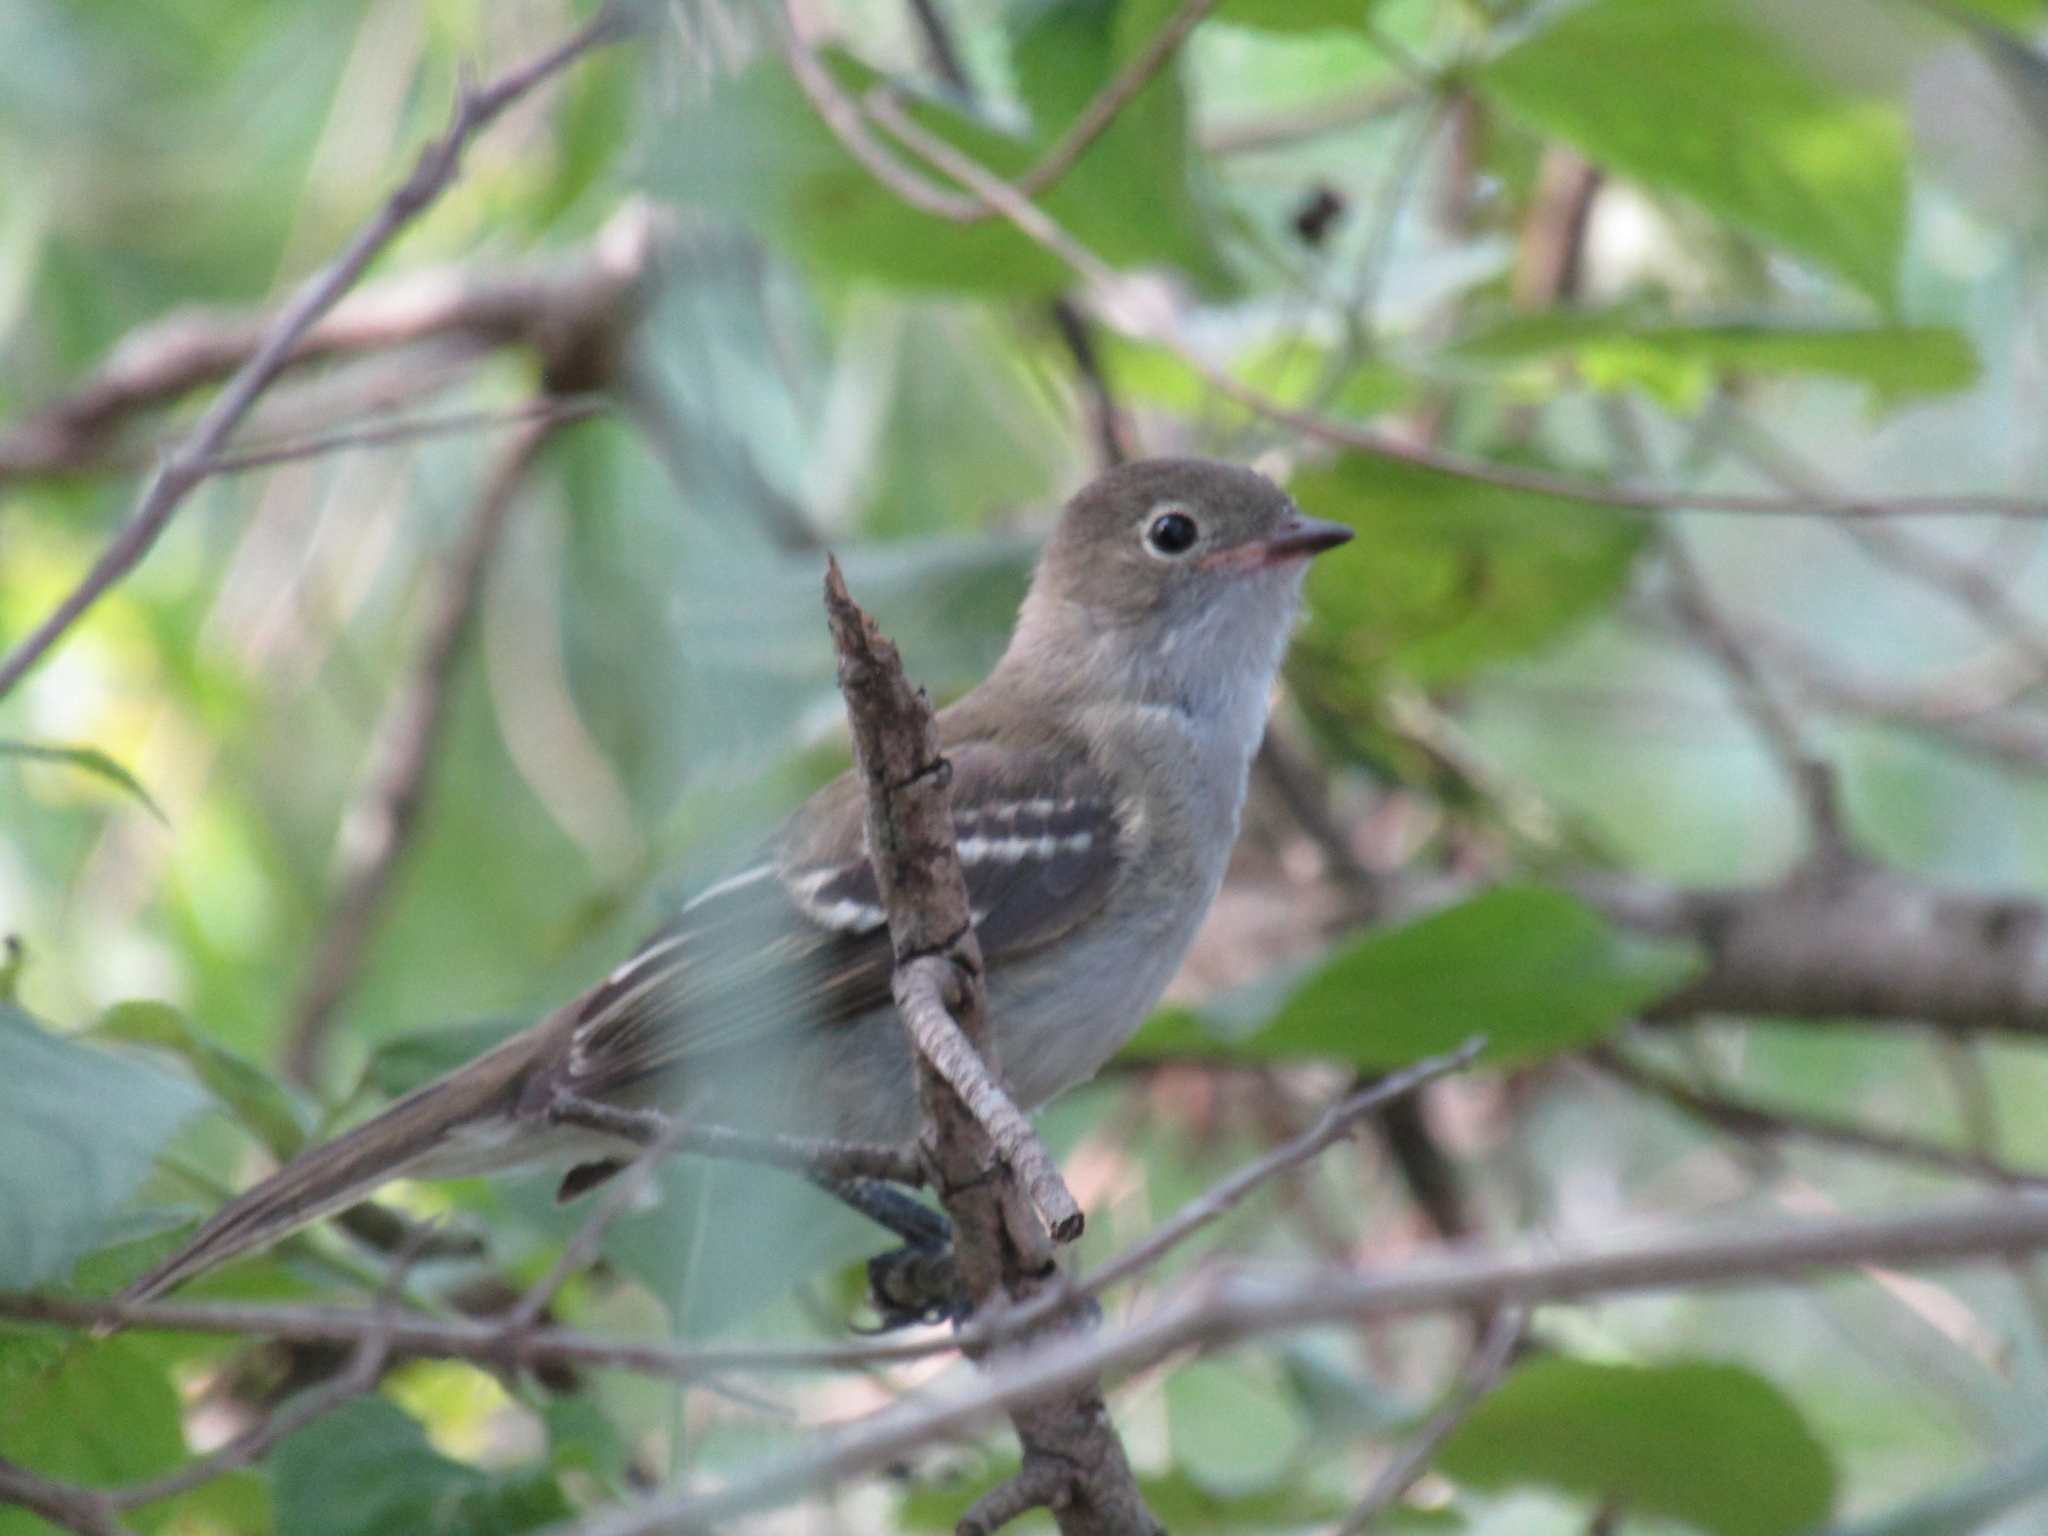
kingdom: Animalia
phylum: Chordata
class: Aves
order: Passeriformes
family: Tyrannidae
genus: Elaenia
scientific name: Elaenia parvirostris
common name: Small-billed elaenia
